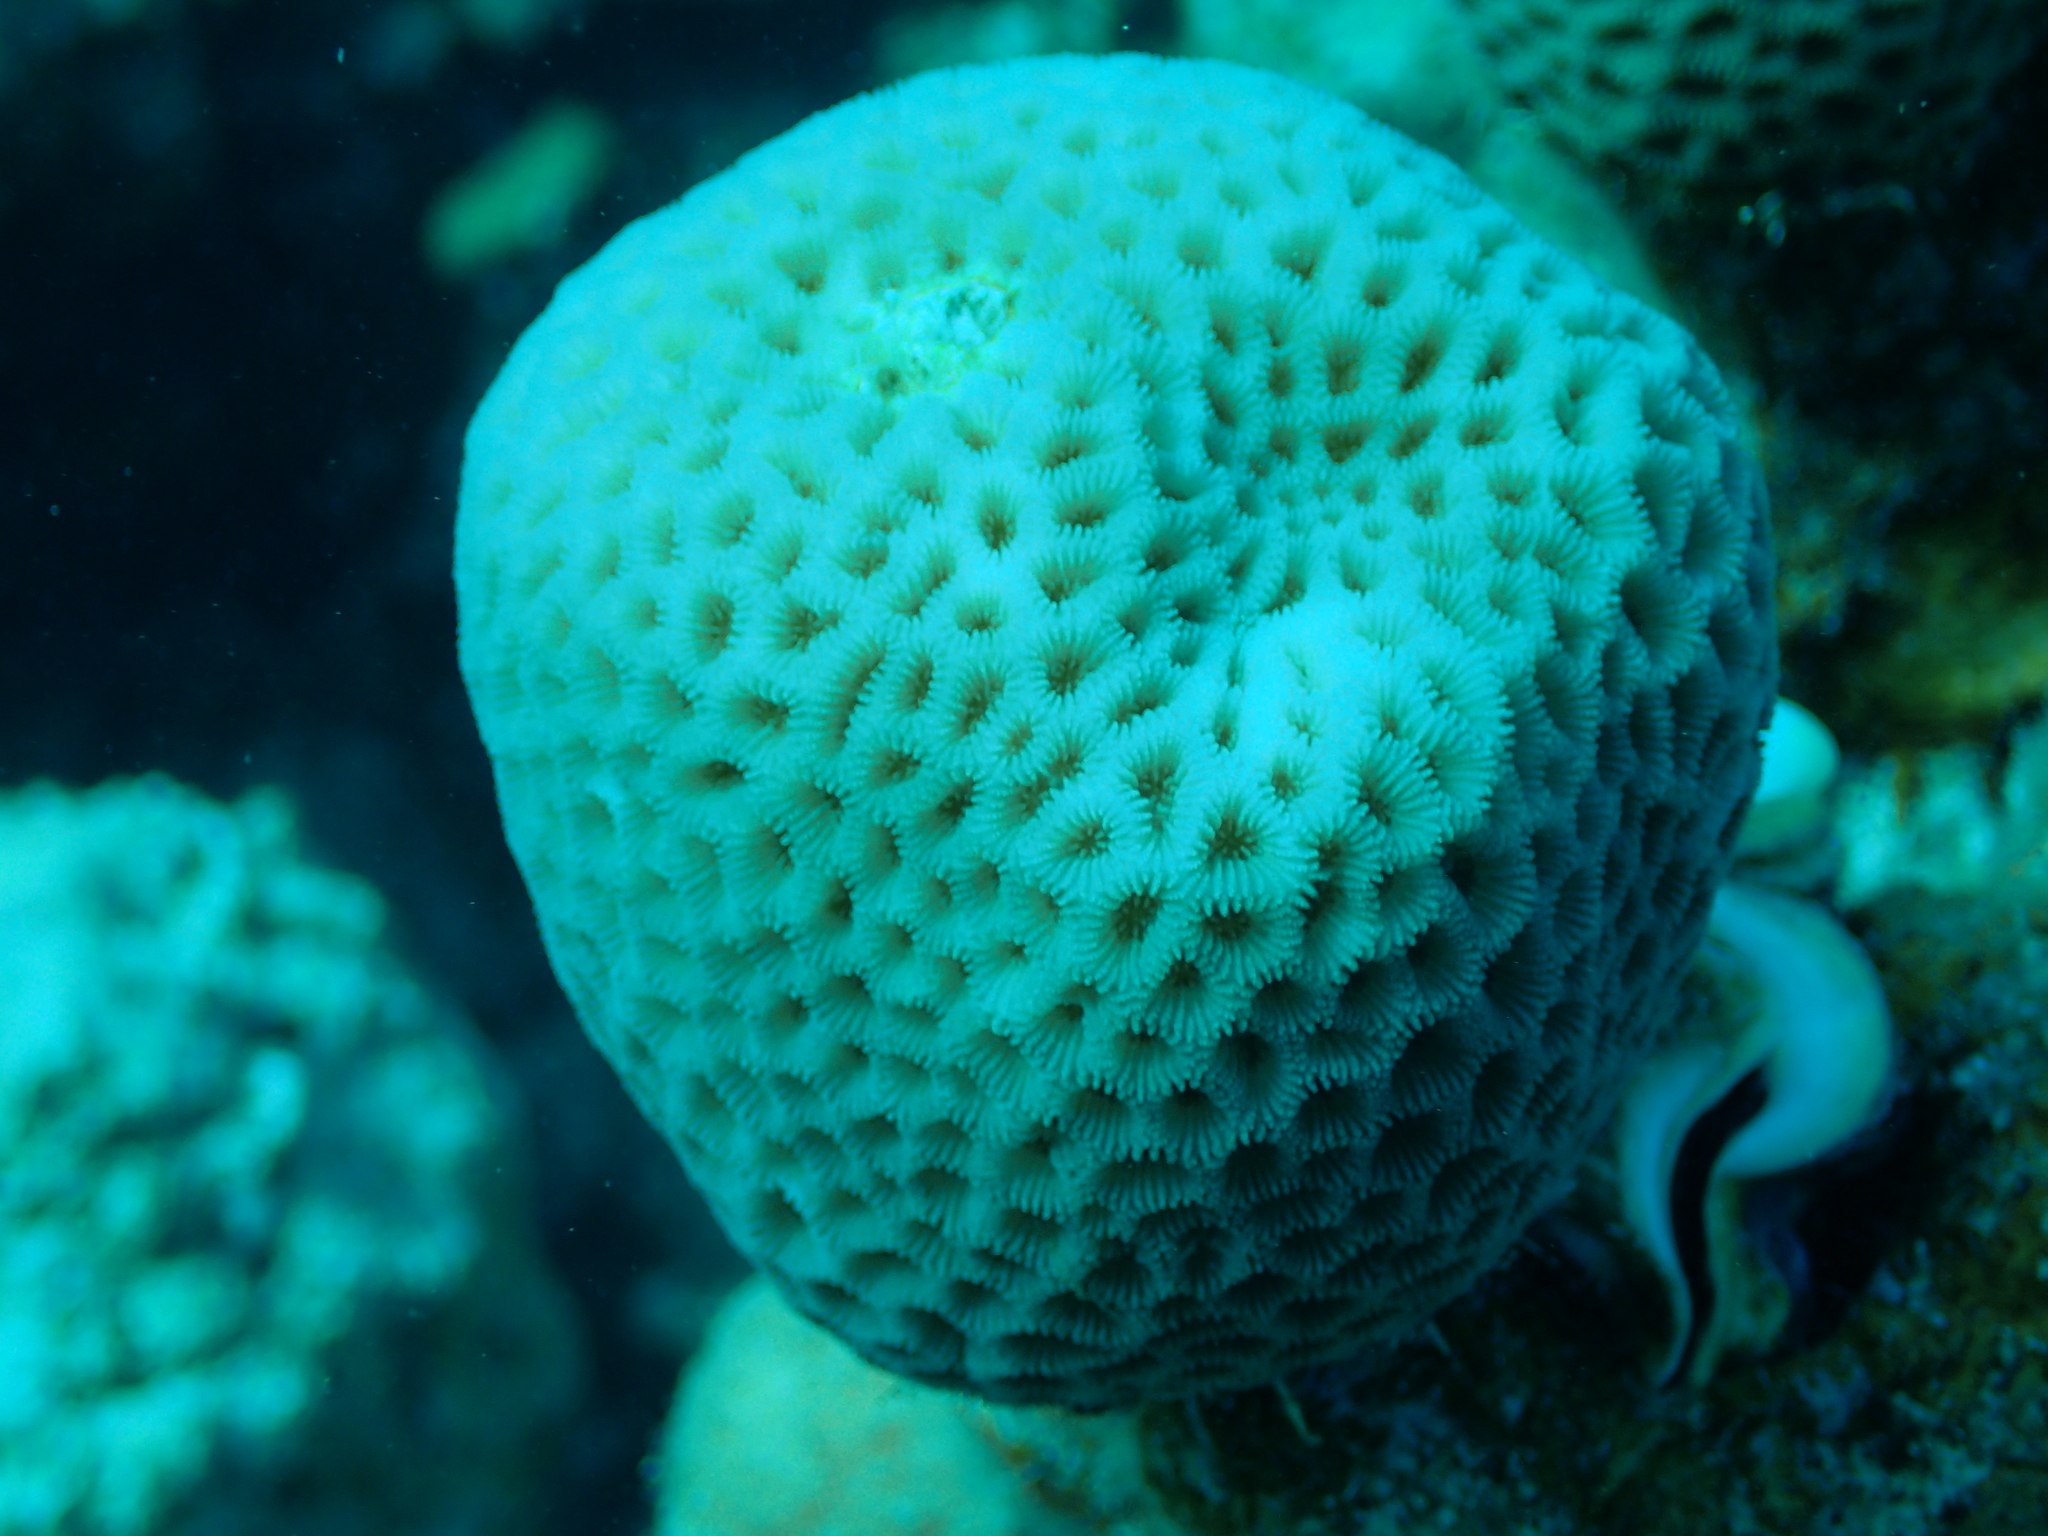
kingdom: Animalia
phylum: Cnidaria
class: Anthozoa
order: Scleractinia
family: Merulinidae
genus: Goniastrea
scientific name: Goniastrea pectinata
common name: Lesser star coral
